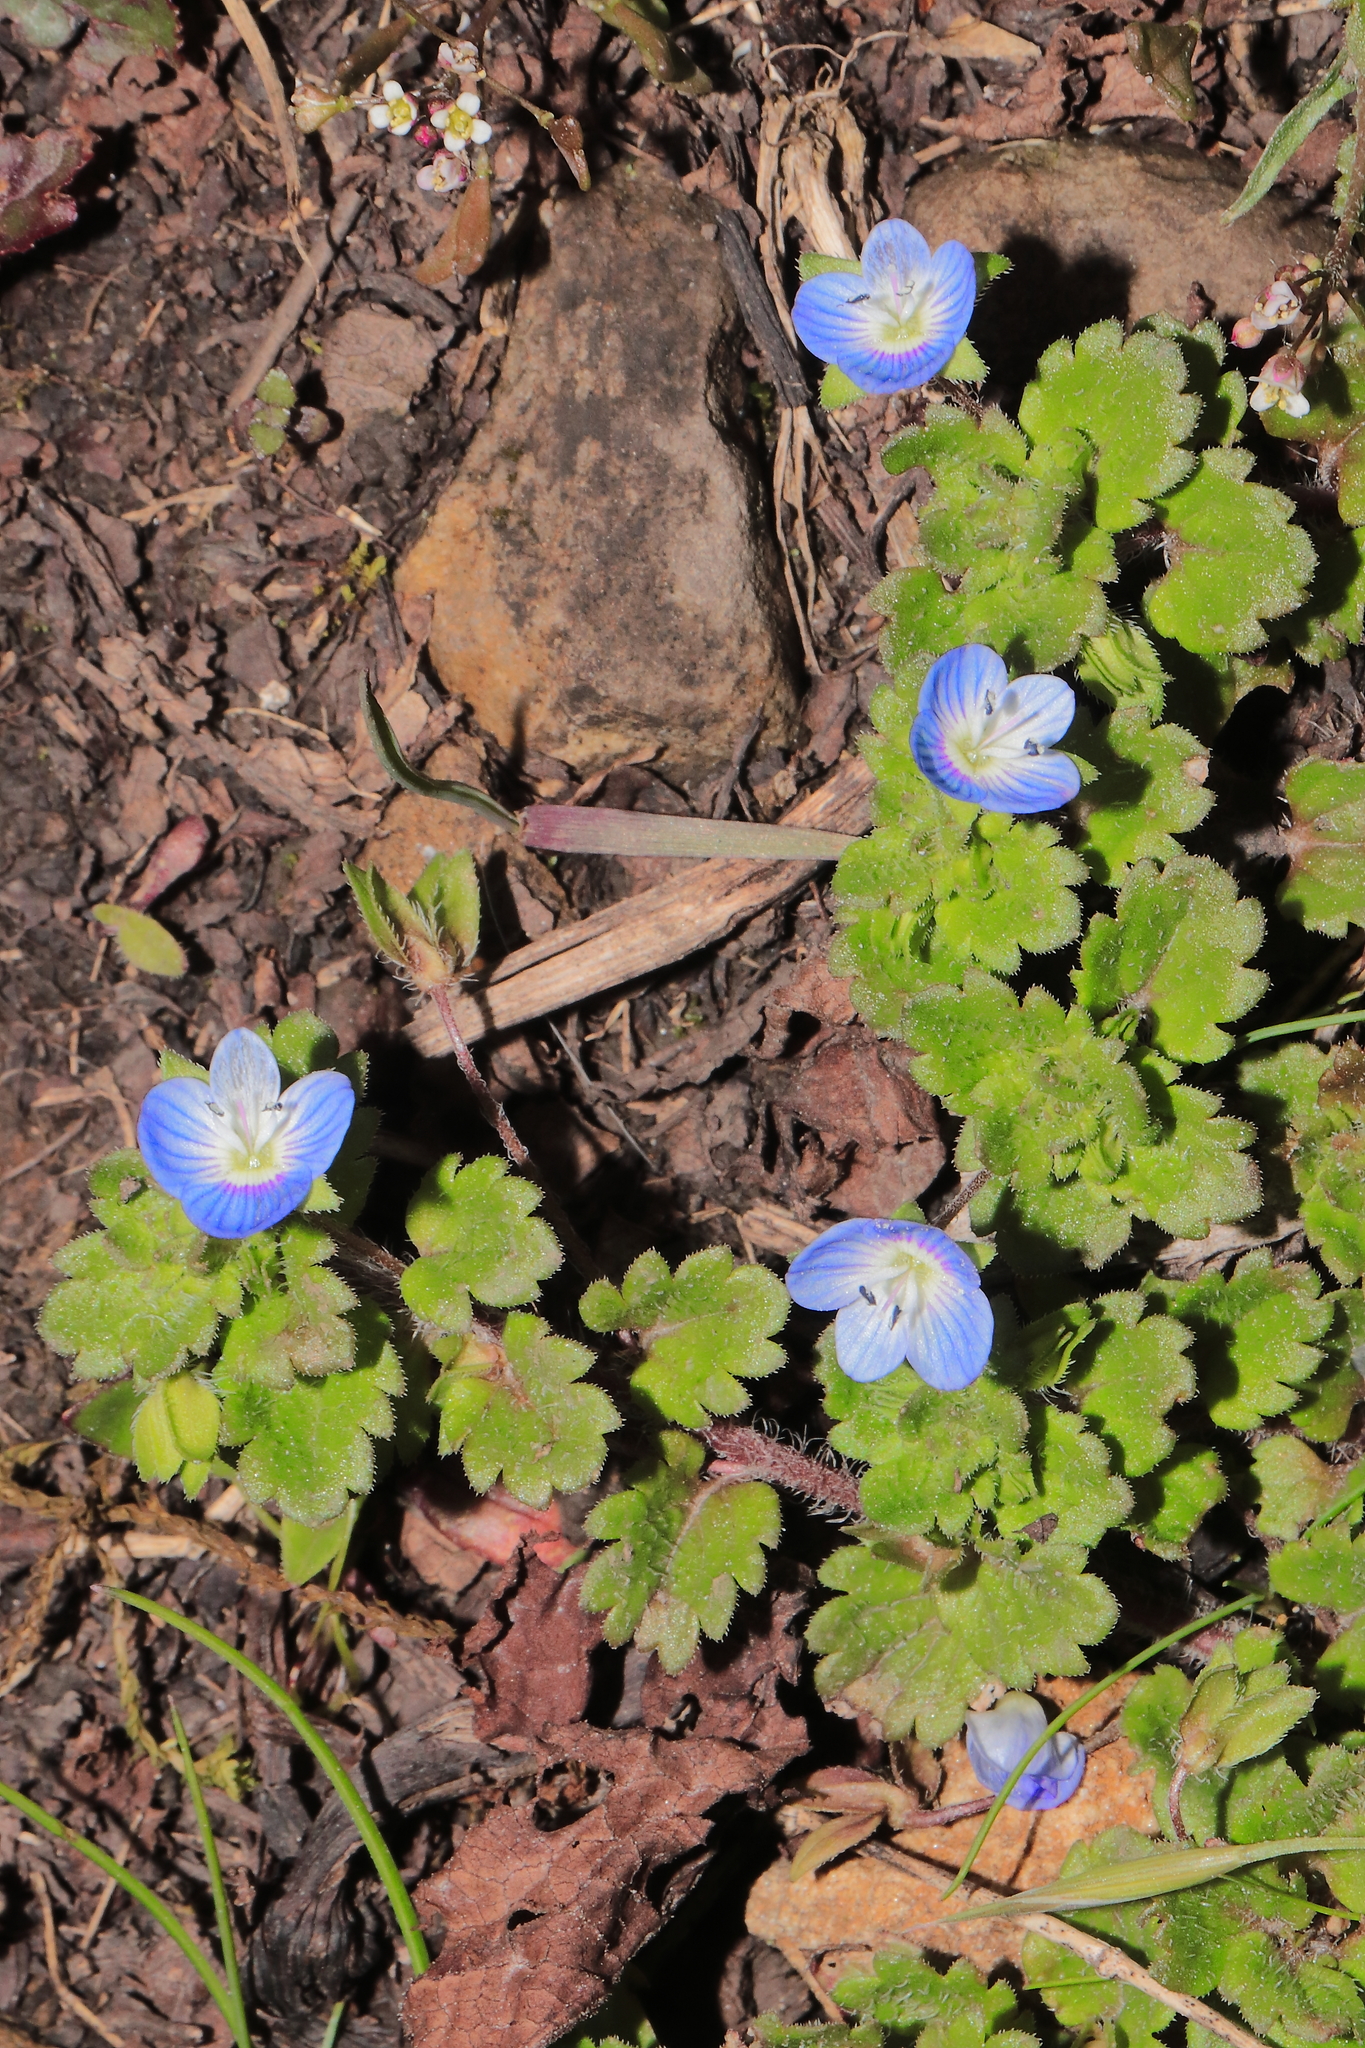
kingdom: Plantae
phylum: Tracheophyta
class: Magnoliopsida
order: Lamiales
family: Plantaginaceae
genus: Veronica
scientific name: Veronica persica
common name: Common field-speedwell
